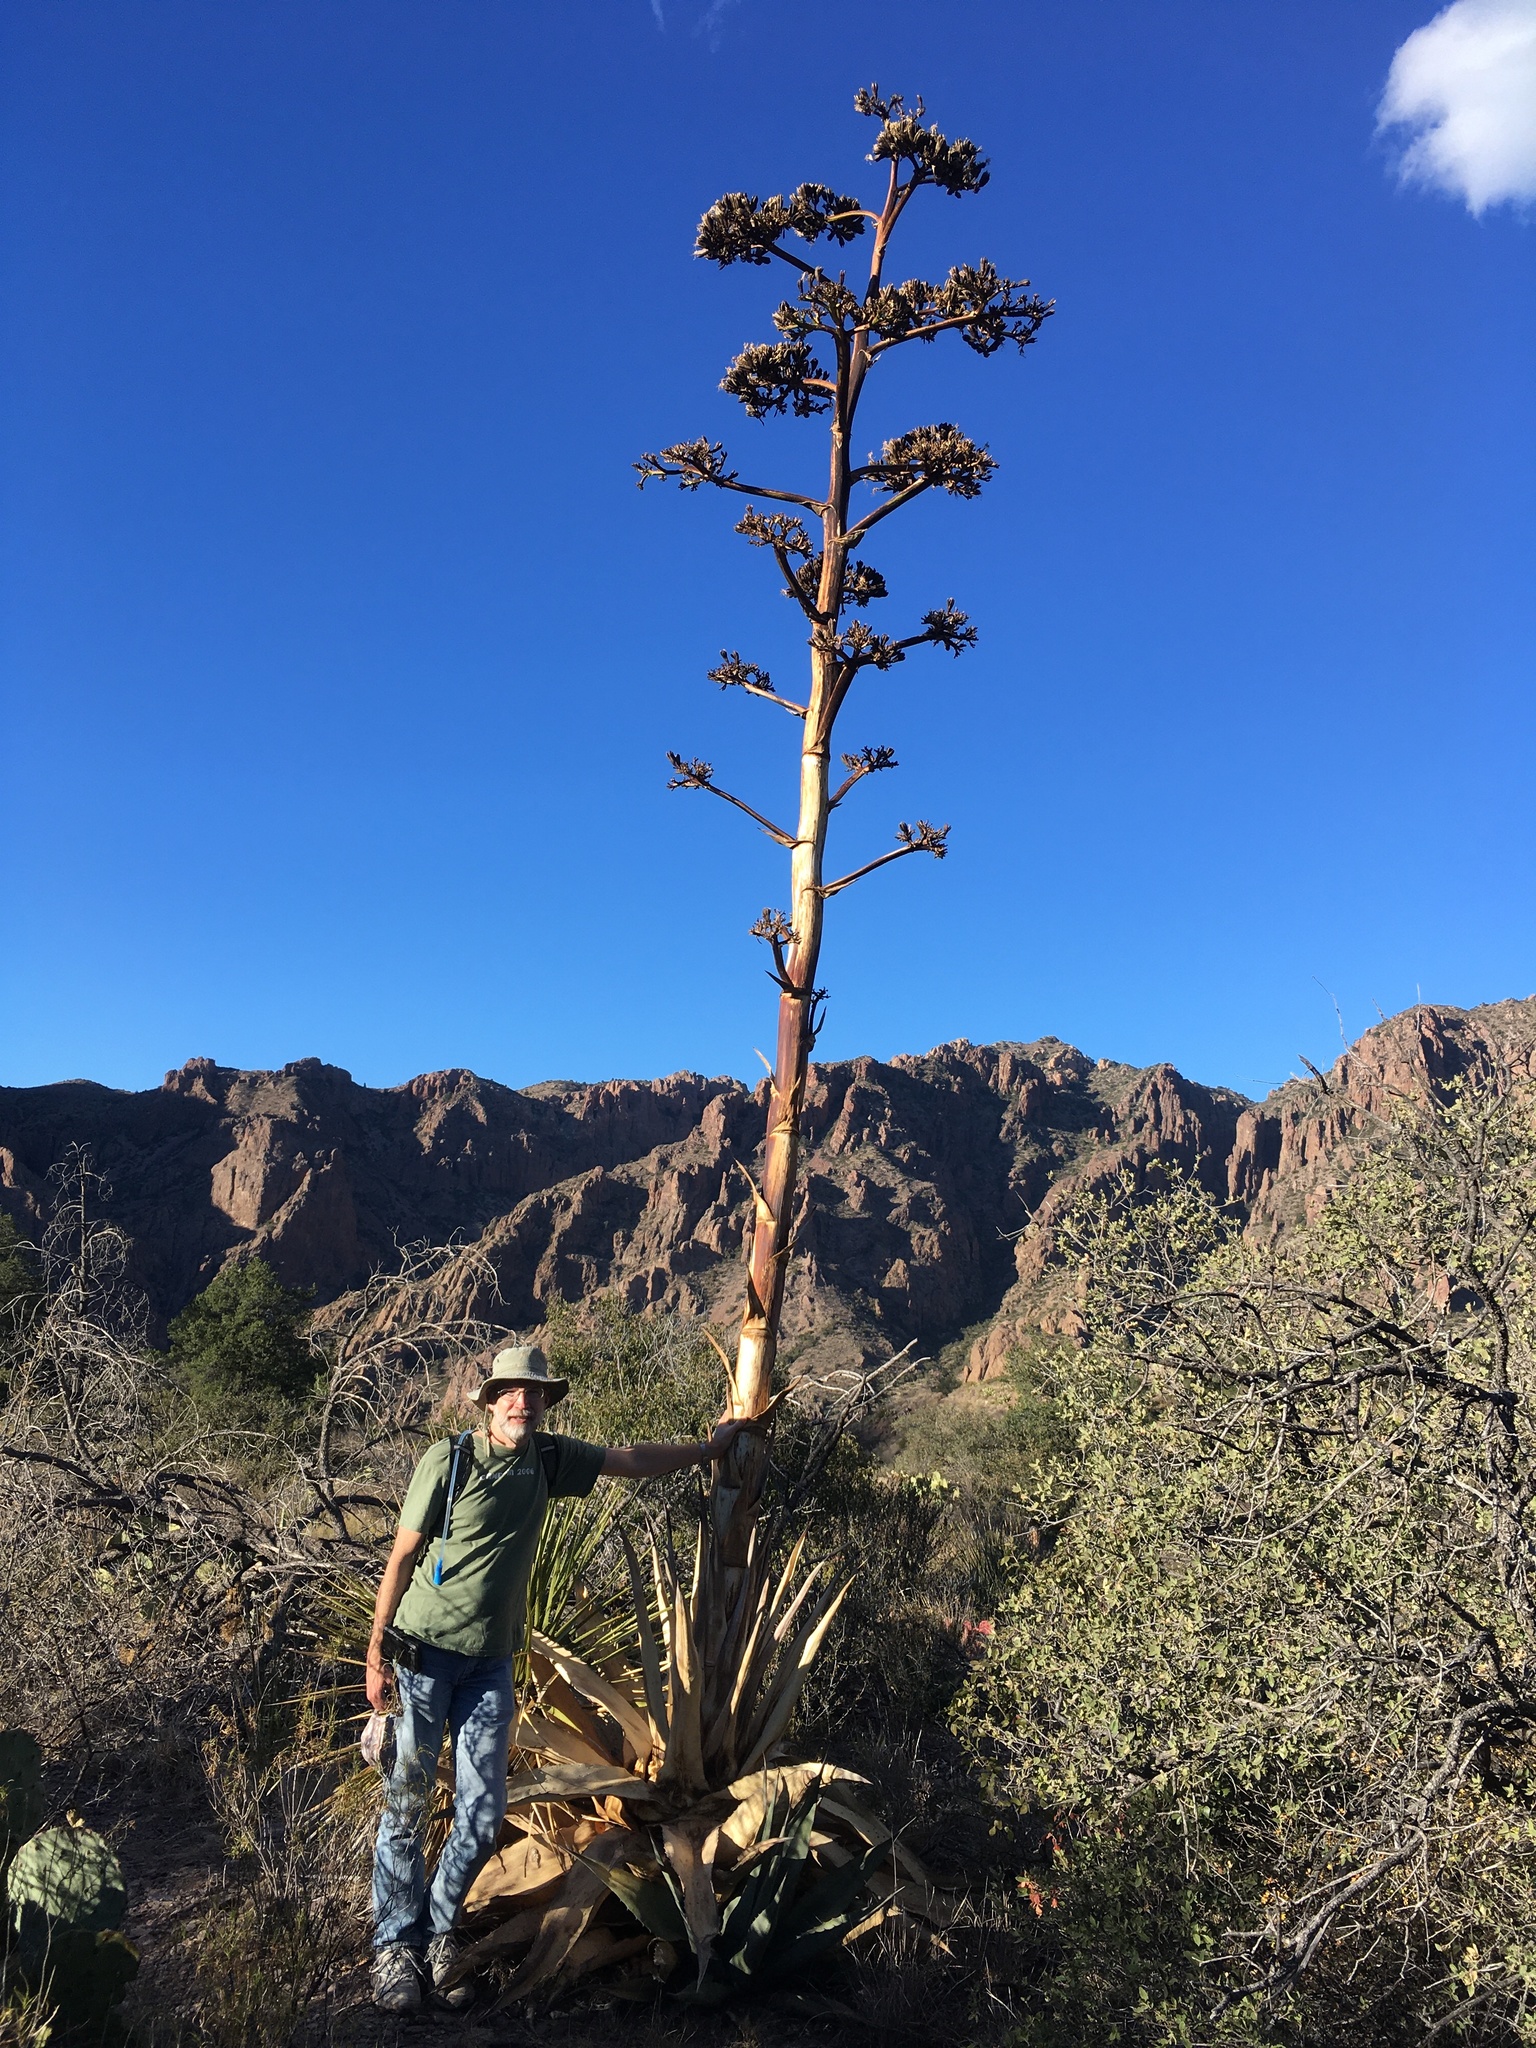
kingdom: Plantae
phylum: Tracheophyta
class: Liliopsida
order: Asparagales
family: Asparagaceae
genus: Agave
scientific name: Agave havardiana
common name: Havard agave
